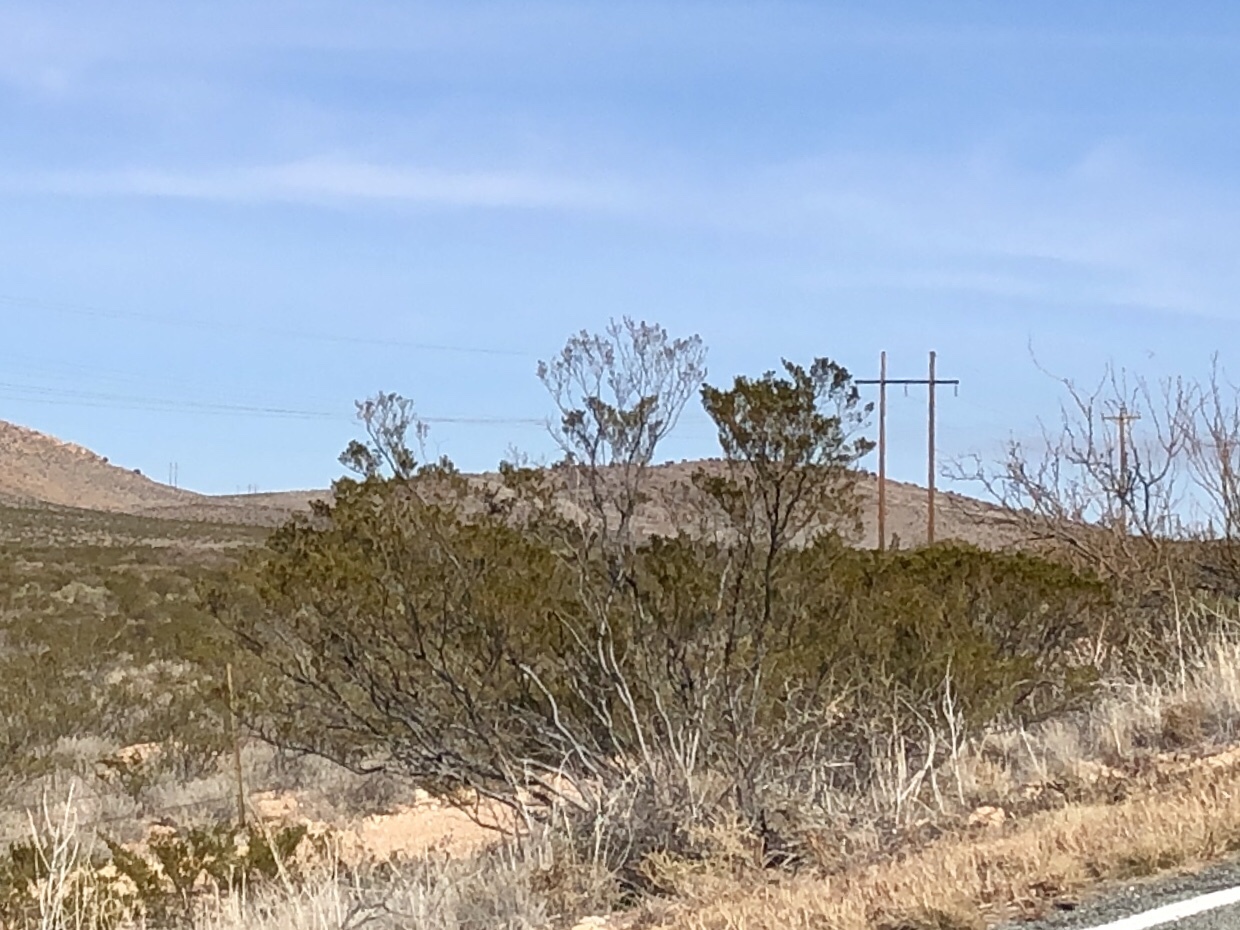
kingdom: Plantae
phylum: Tracheophyta
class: Magnoliopsida
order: Zygophyllales
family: Zygophyllaceae
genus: Larrea
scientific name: Larrea tridentata
